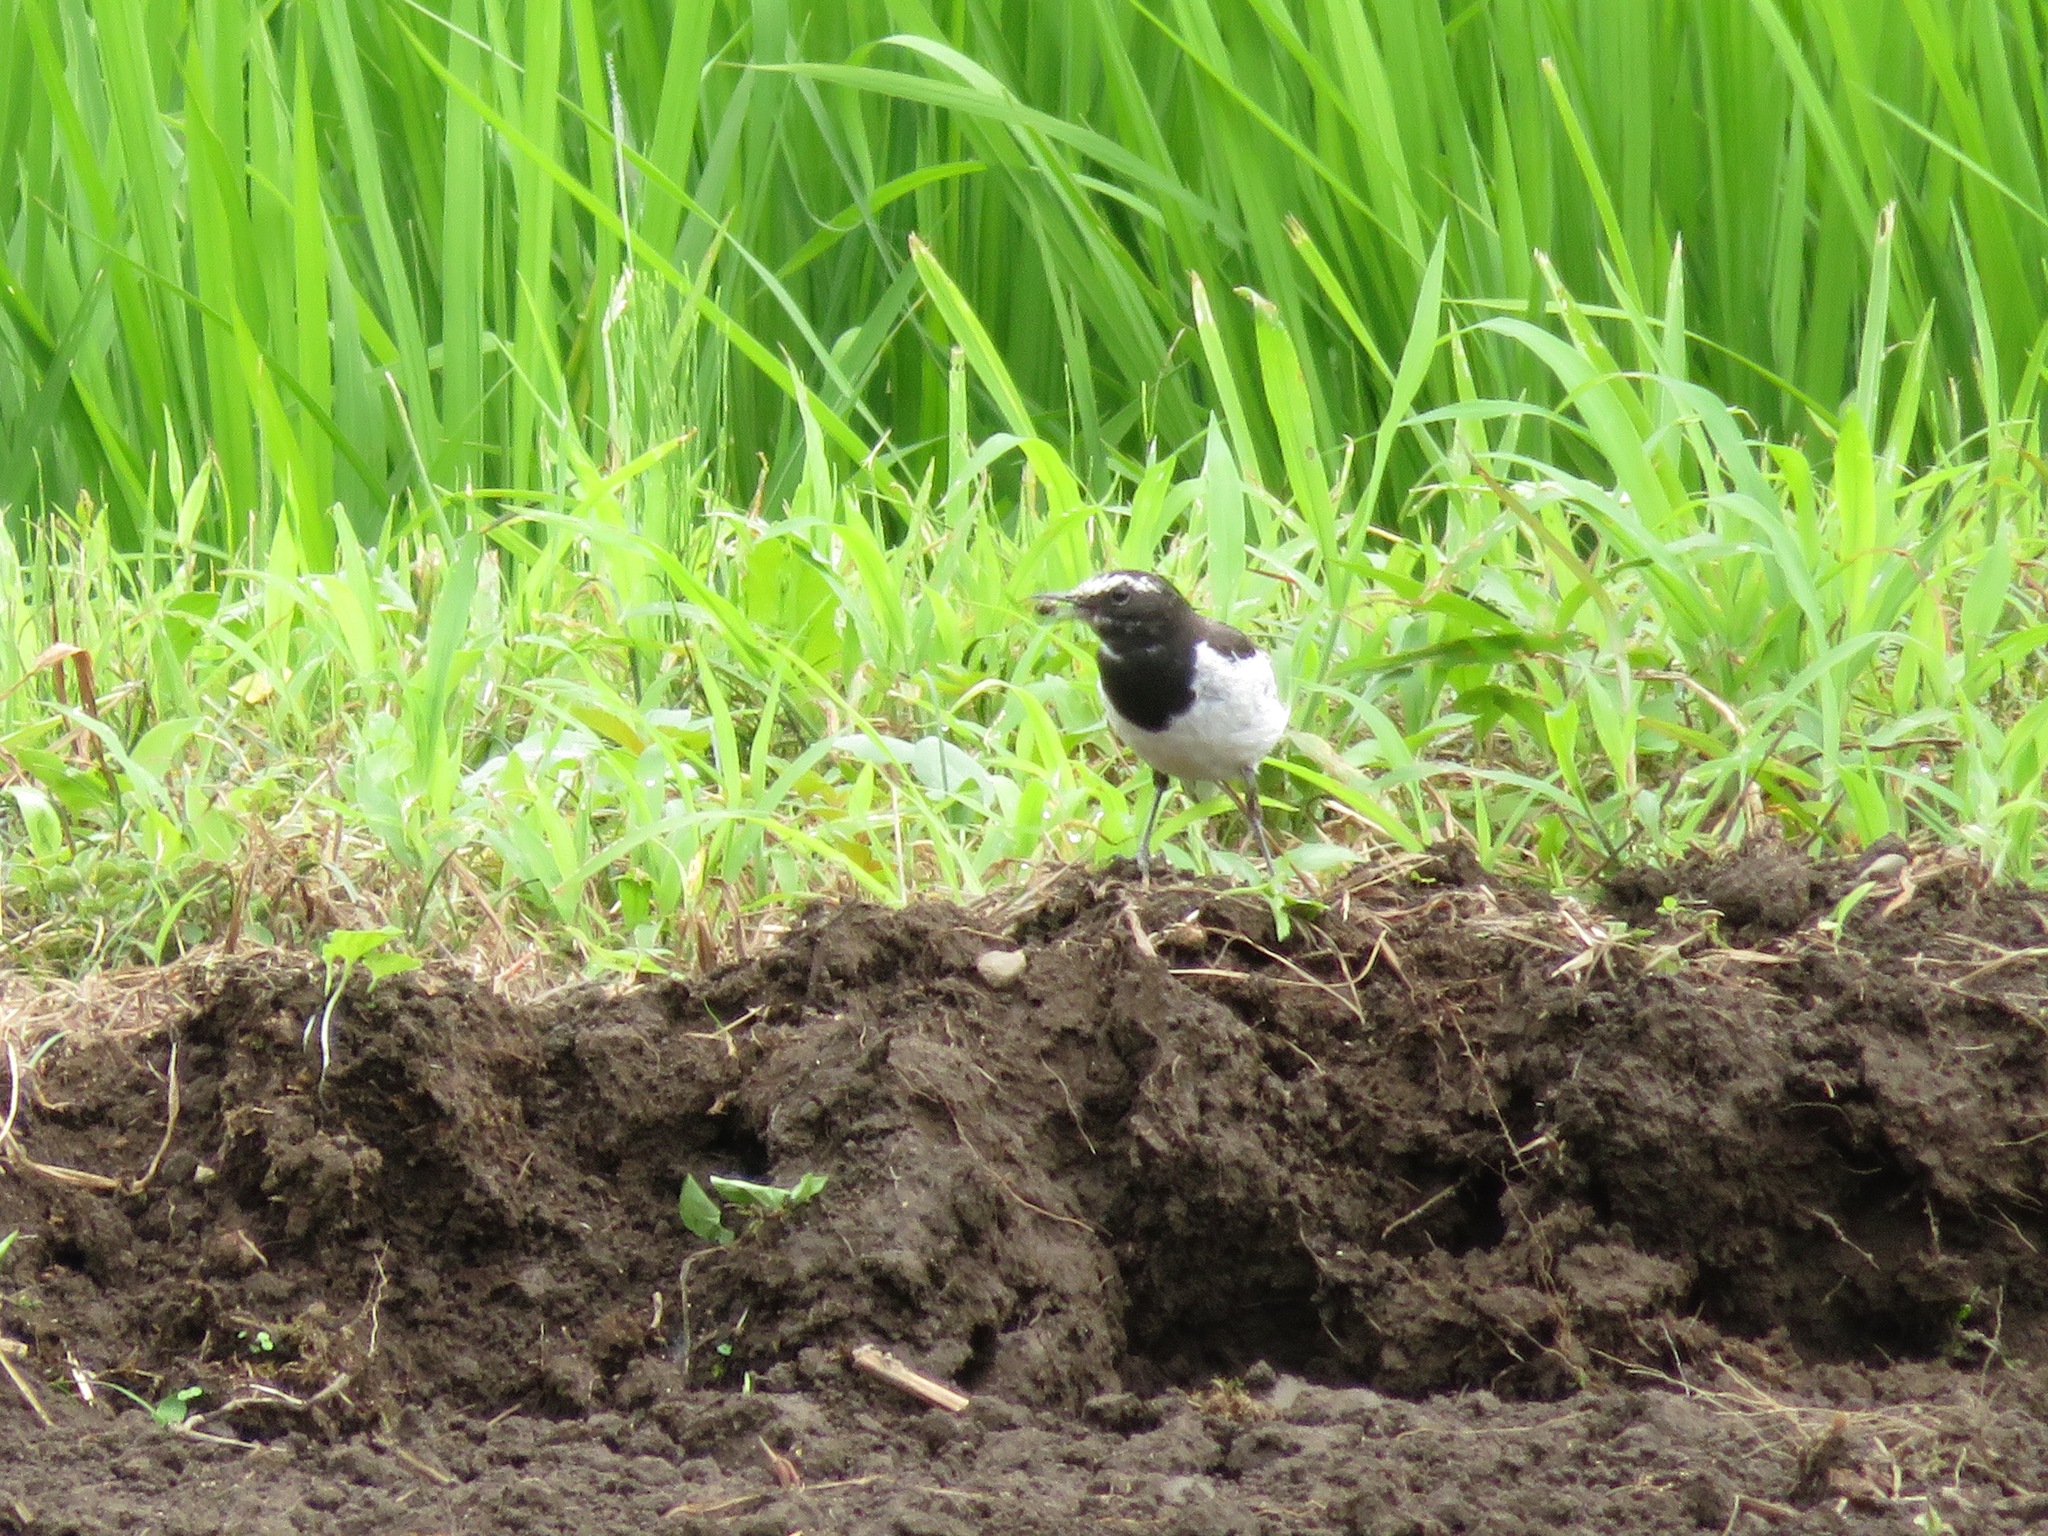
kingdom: Animalia
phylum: Chordata
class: Aves
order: Passeriformes
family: Motacillidae
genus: Motacilla
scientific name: Motacilla grandis
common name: Japanese wagtail
